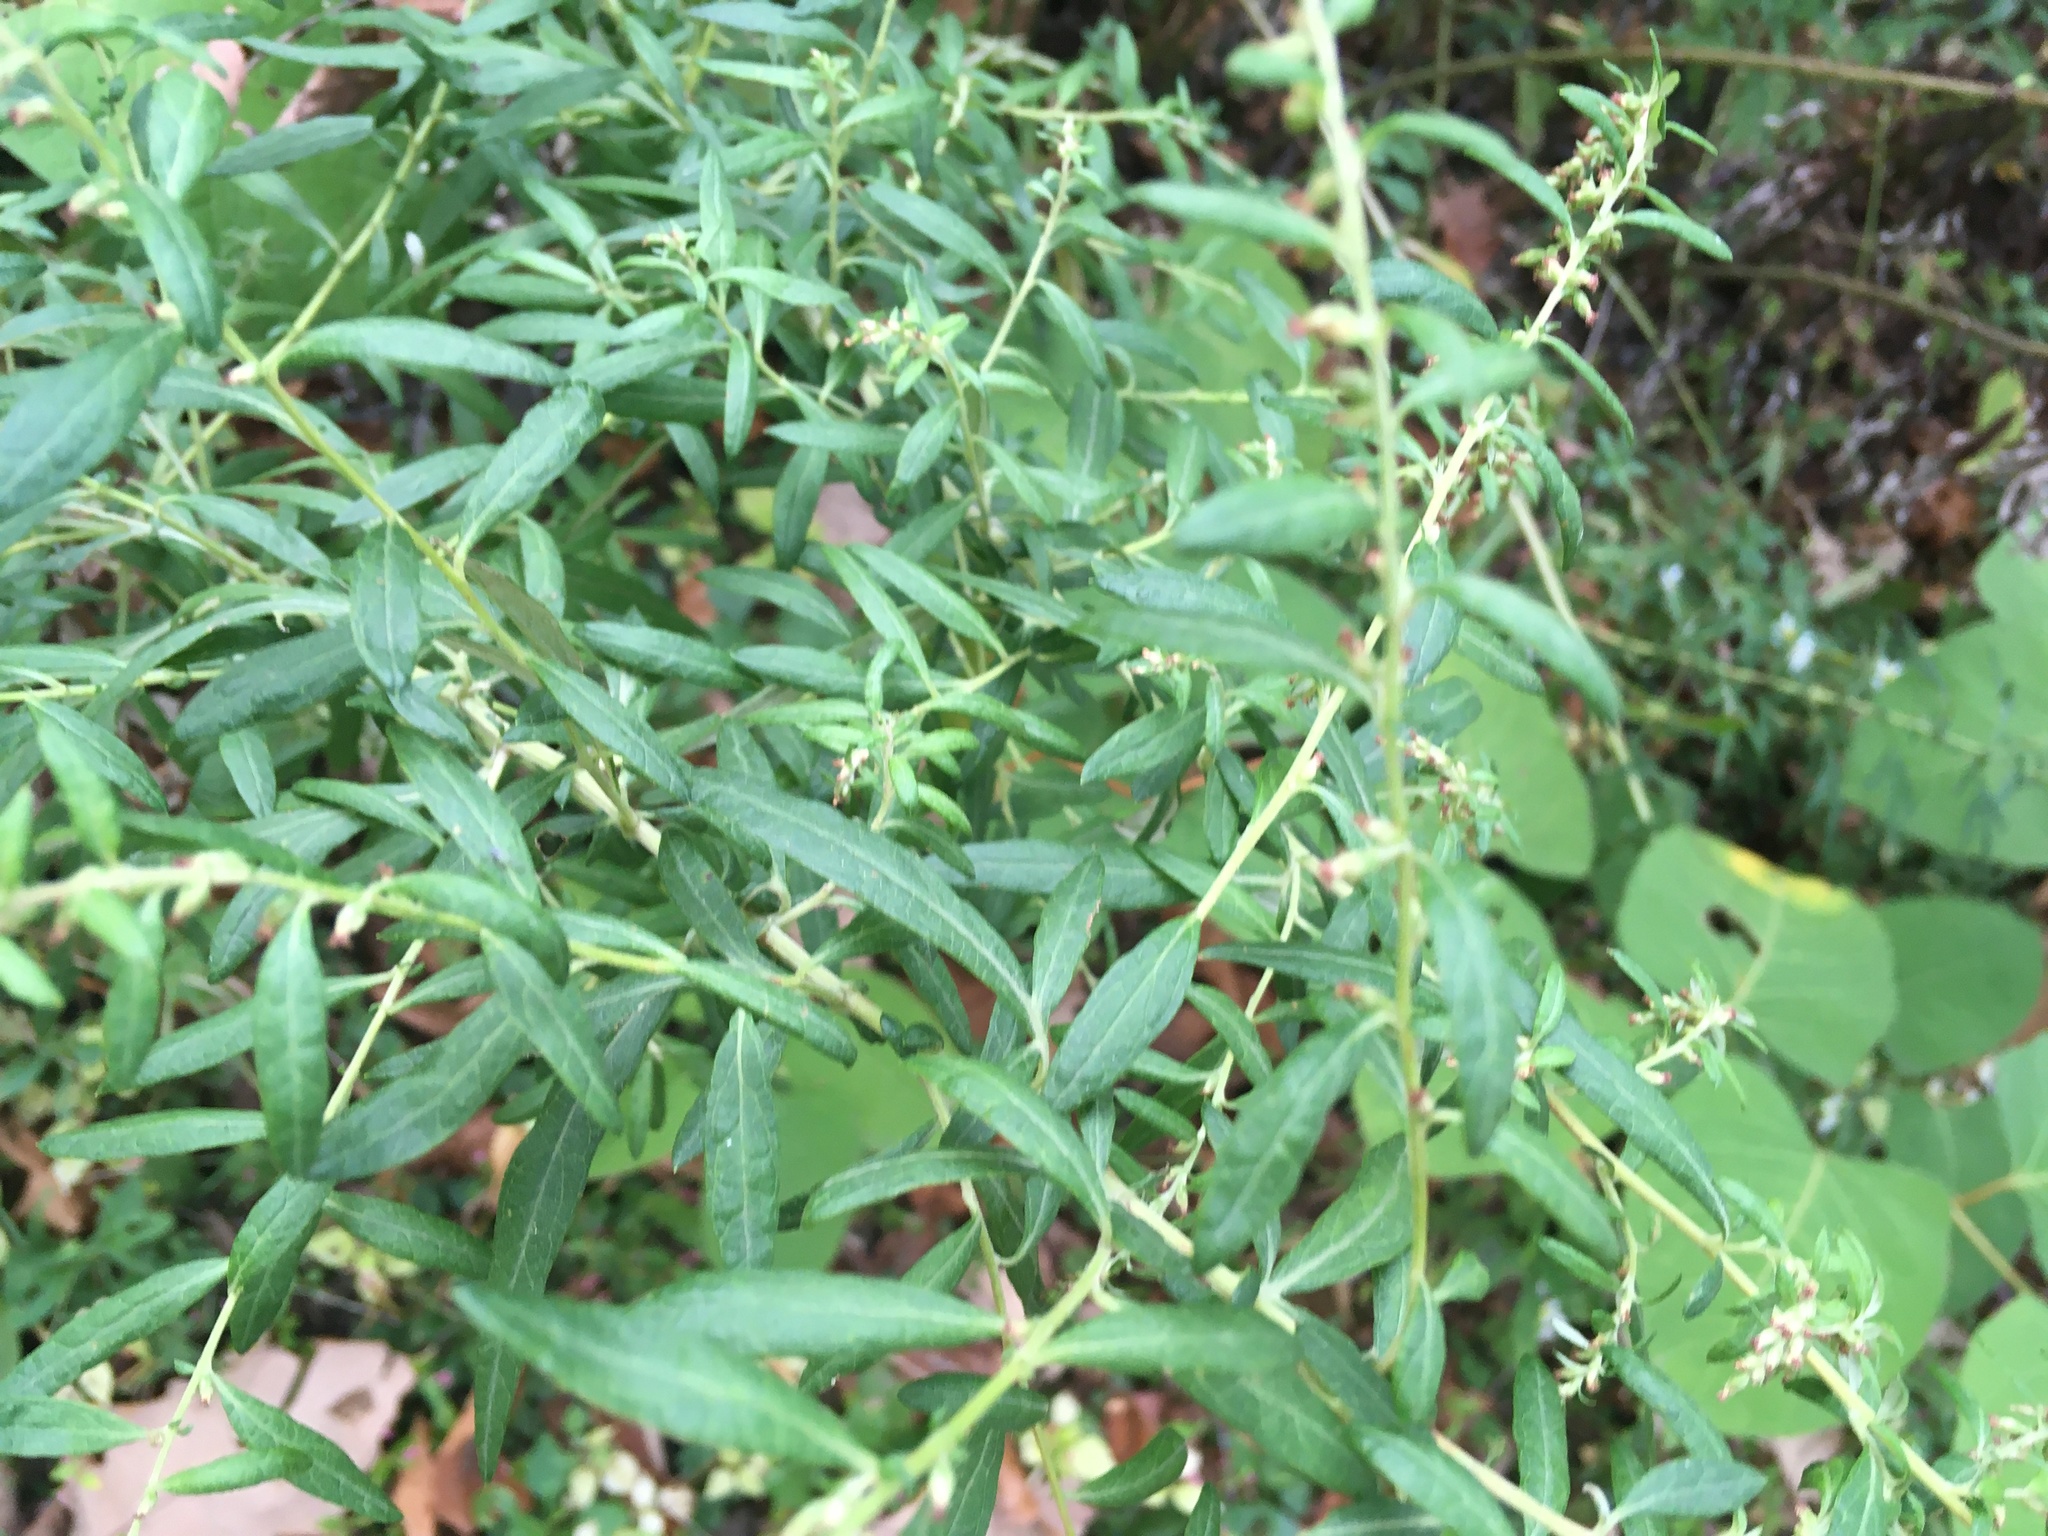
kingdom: Plantae
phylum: Tracheophyta
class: Magnoliopsida
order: Asterales
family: Asteraceae
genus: Artemisia
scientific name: Artemisia vulgaris
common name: Mugwort
